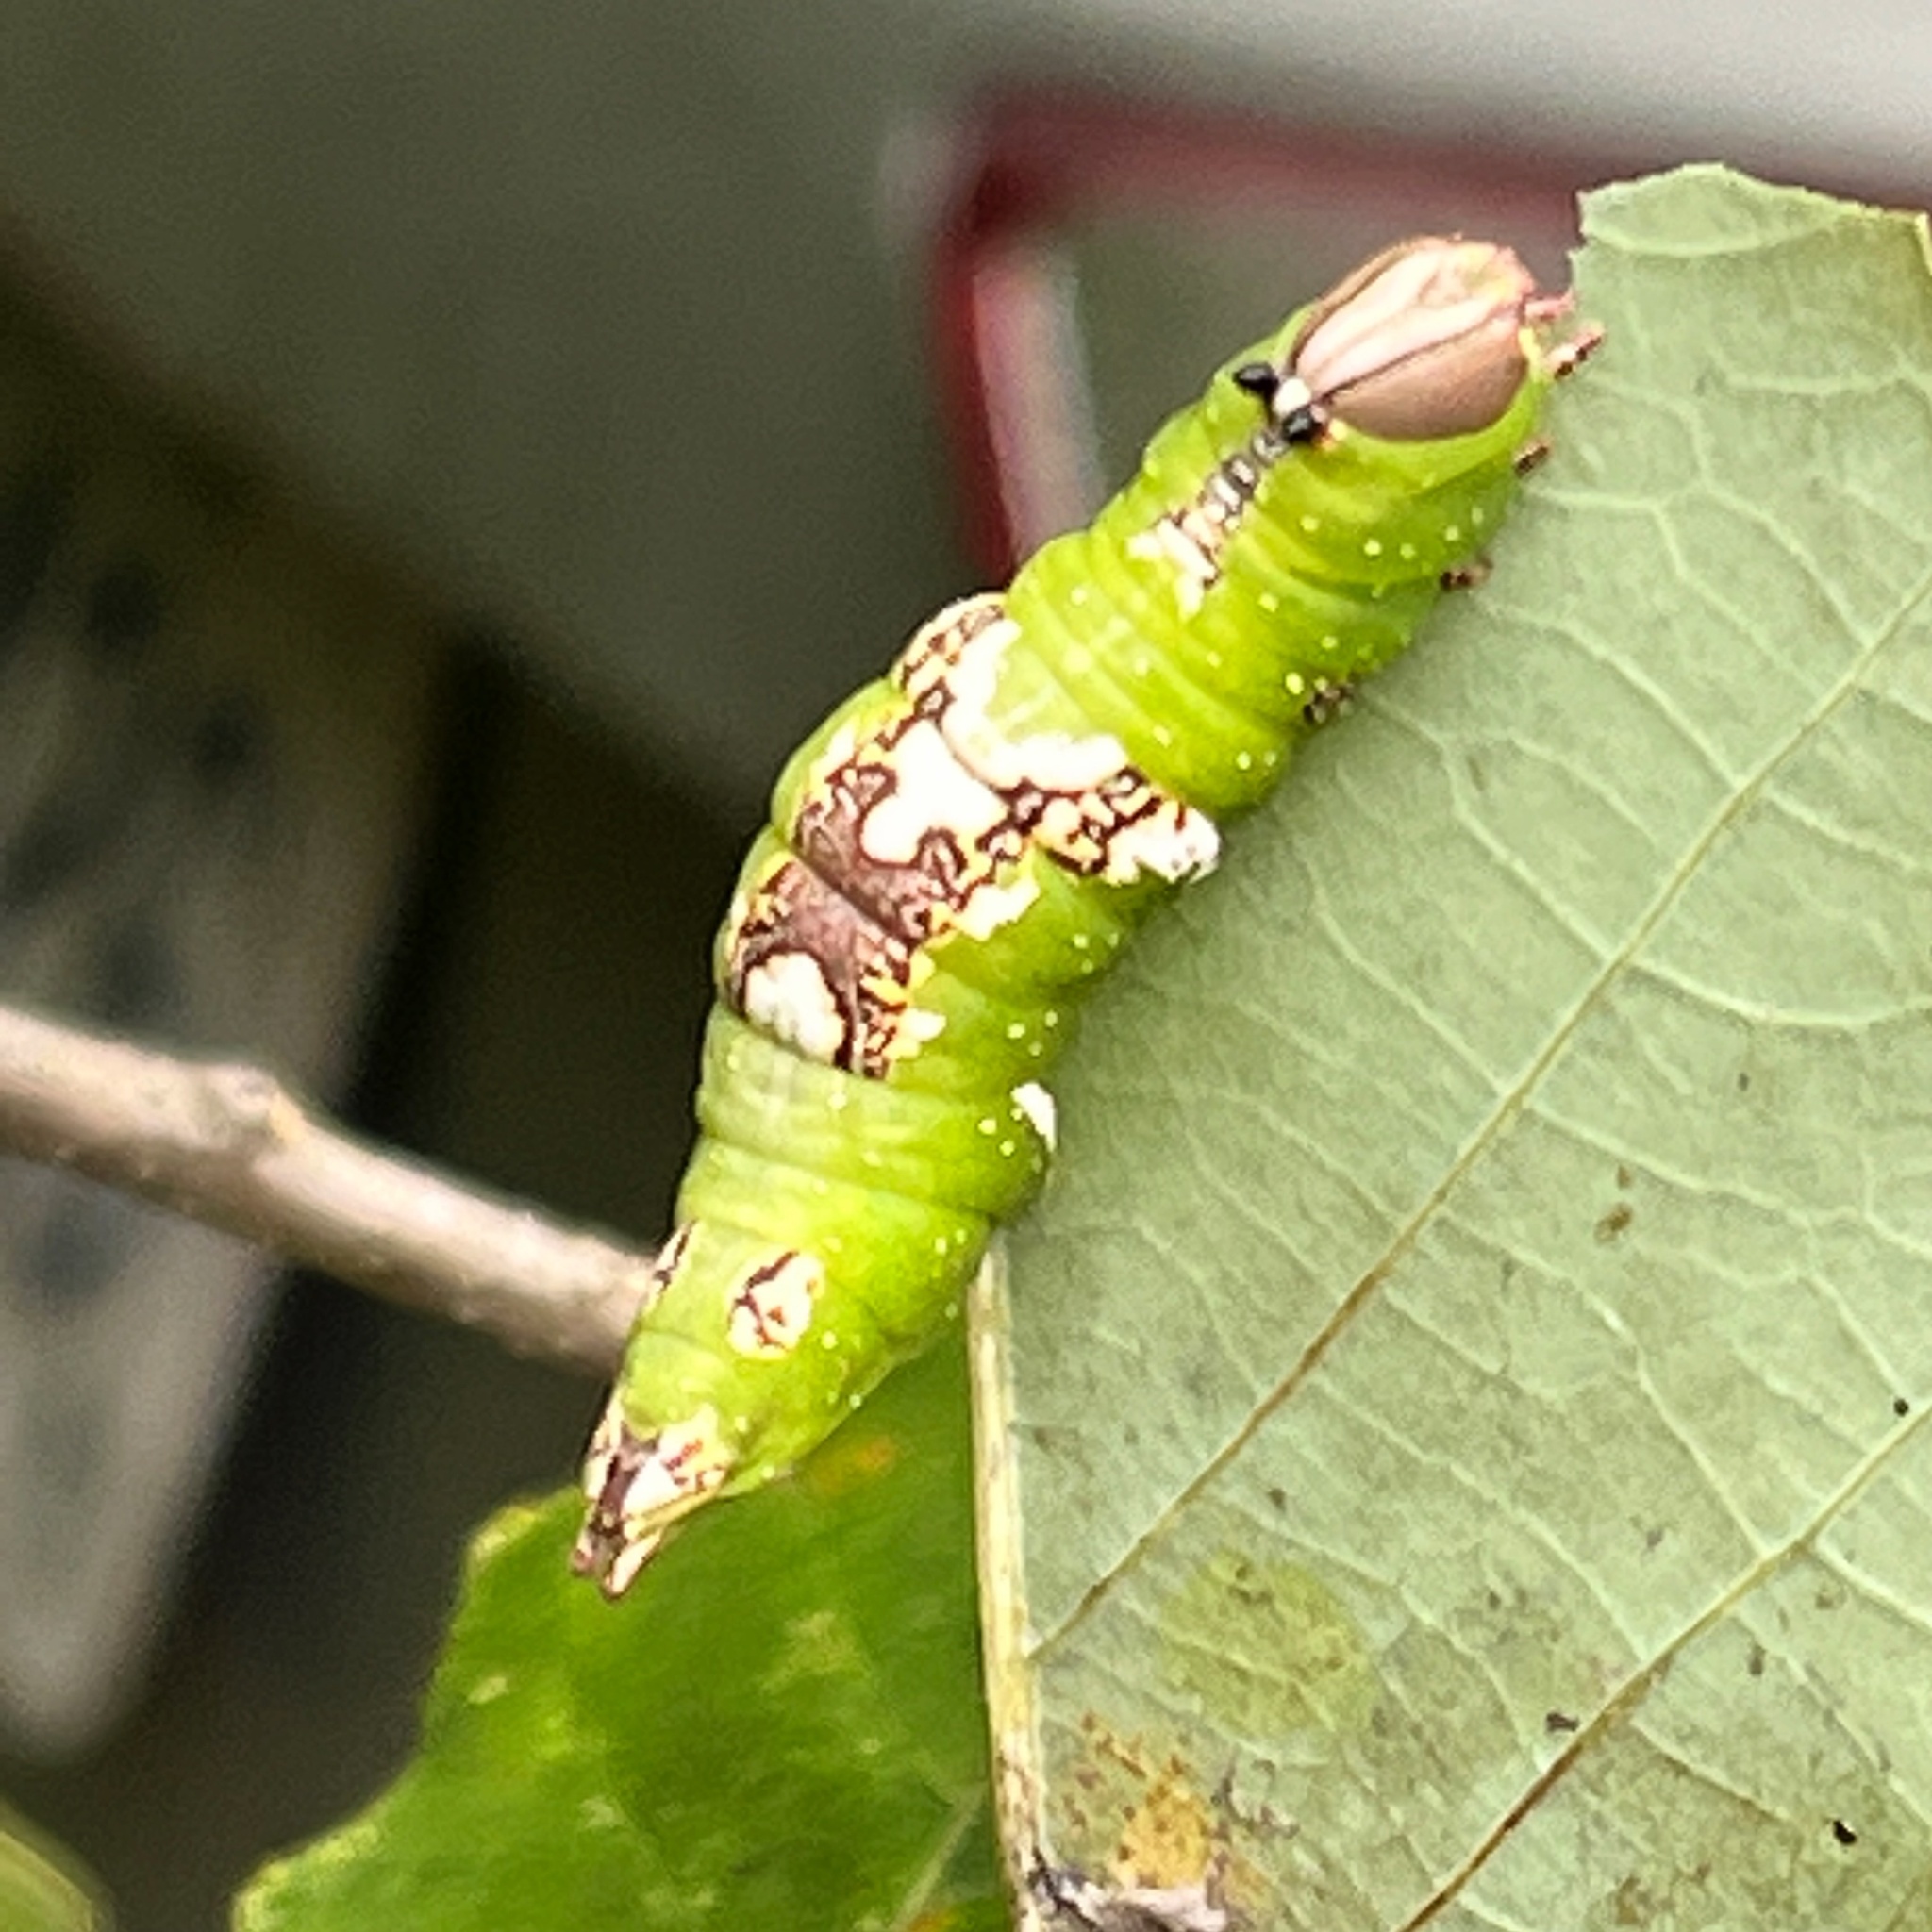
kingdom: Animalia
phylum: Arthropoda
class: Insecta
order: Lepidoptera
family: Notodontidae
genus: Heterocampa
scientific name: Heterocampa
